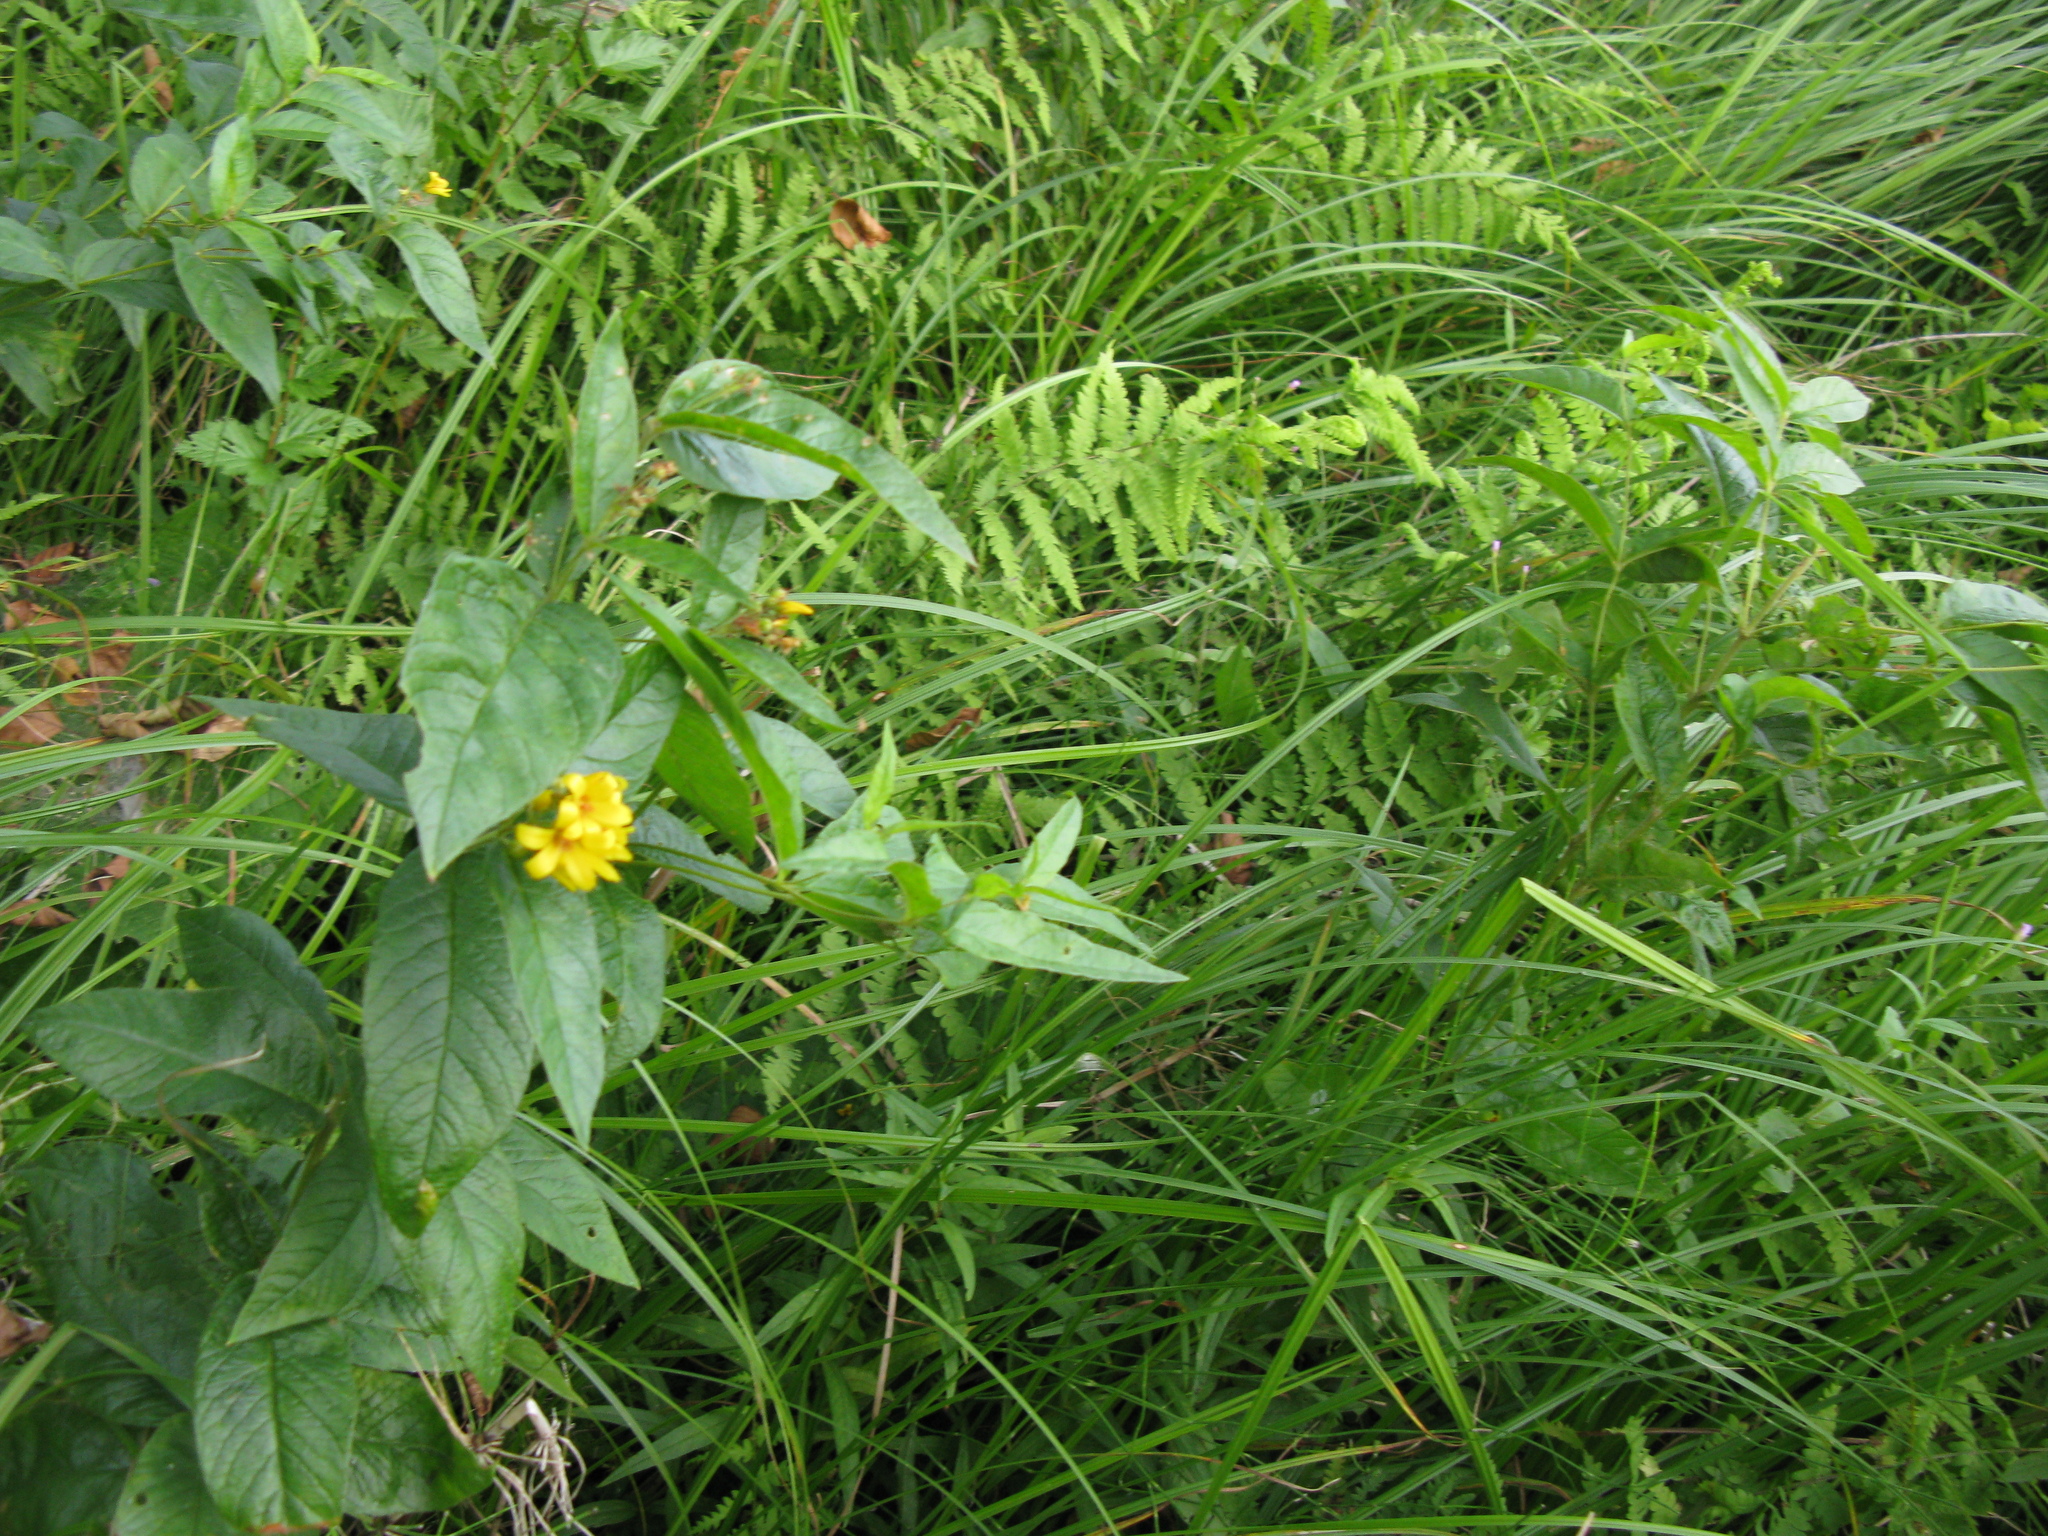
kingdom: Plantae
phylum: Tracheophyta
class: Magnoliopsida
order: Ericales
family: Primulaceae
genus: Lysimachia
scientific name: Lysimachia vulgaris
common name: Yellow loosestrife
